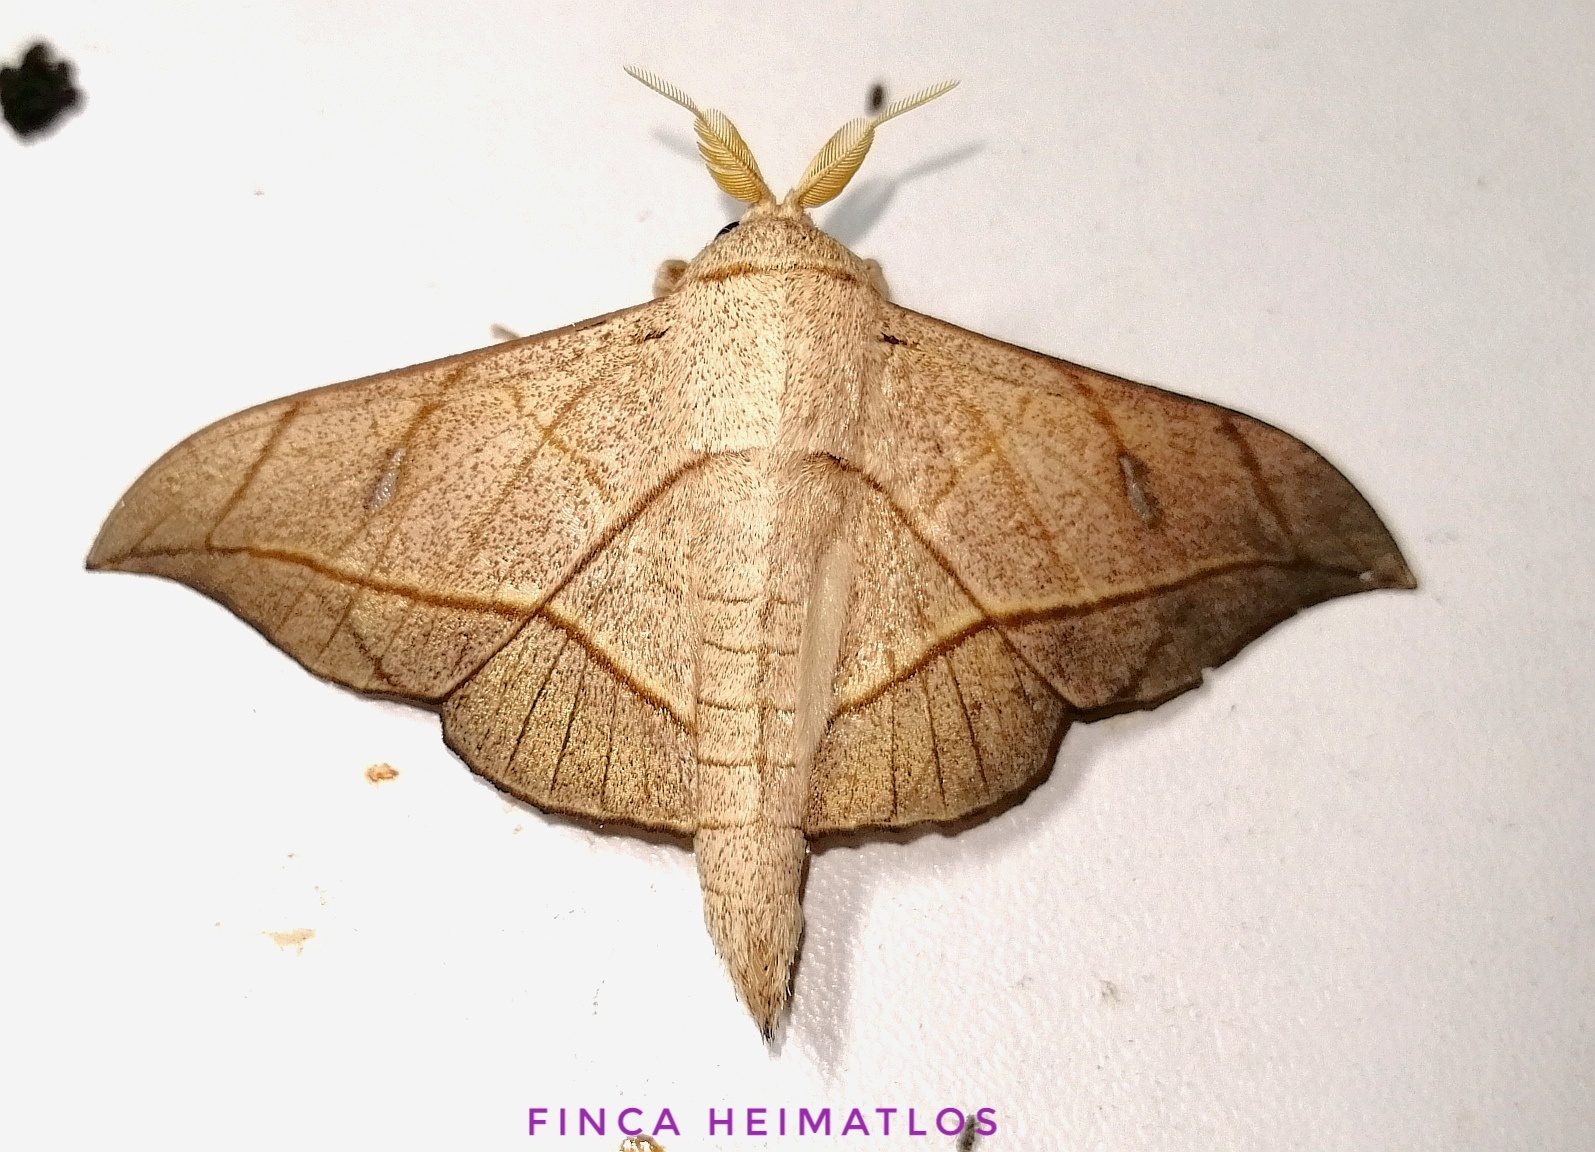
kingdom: Animalia
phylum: Arthropoda
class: Insecta
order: Lepidoptera
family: Mimallonidae
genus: Bedosia
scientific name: Bedosia fraterna
